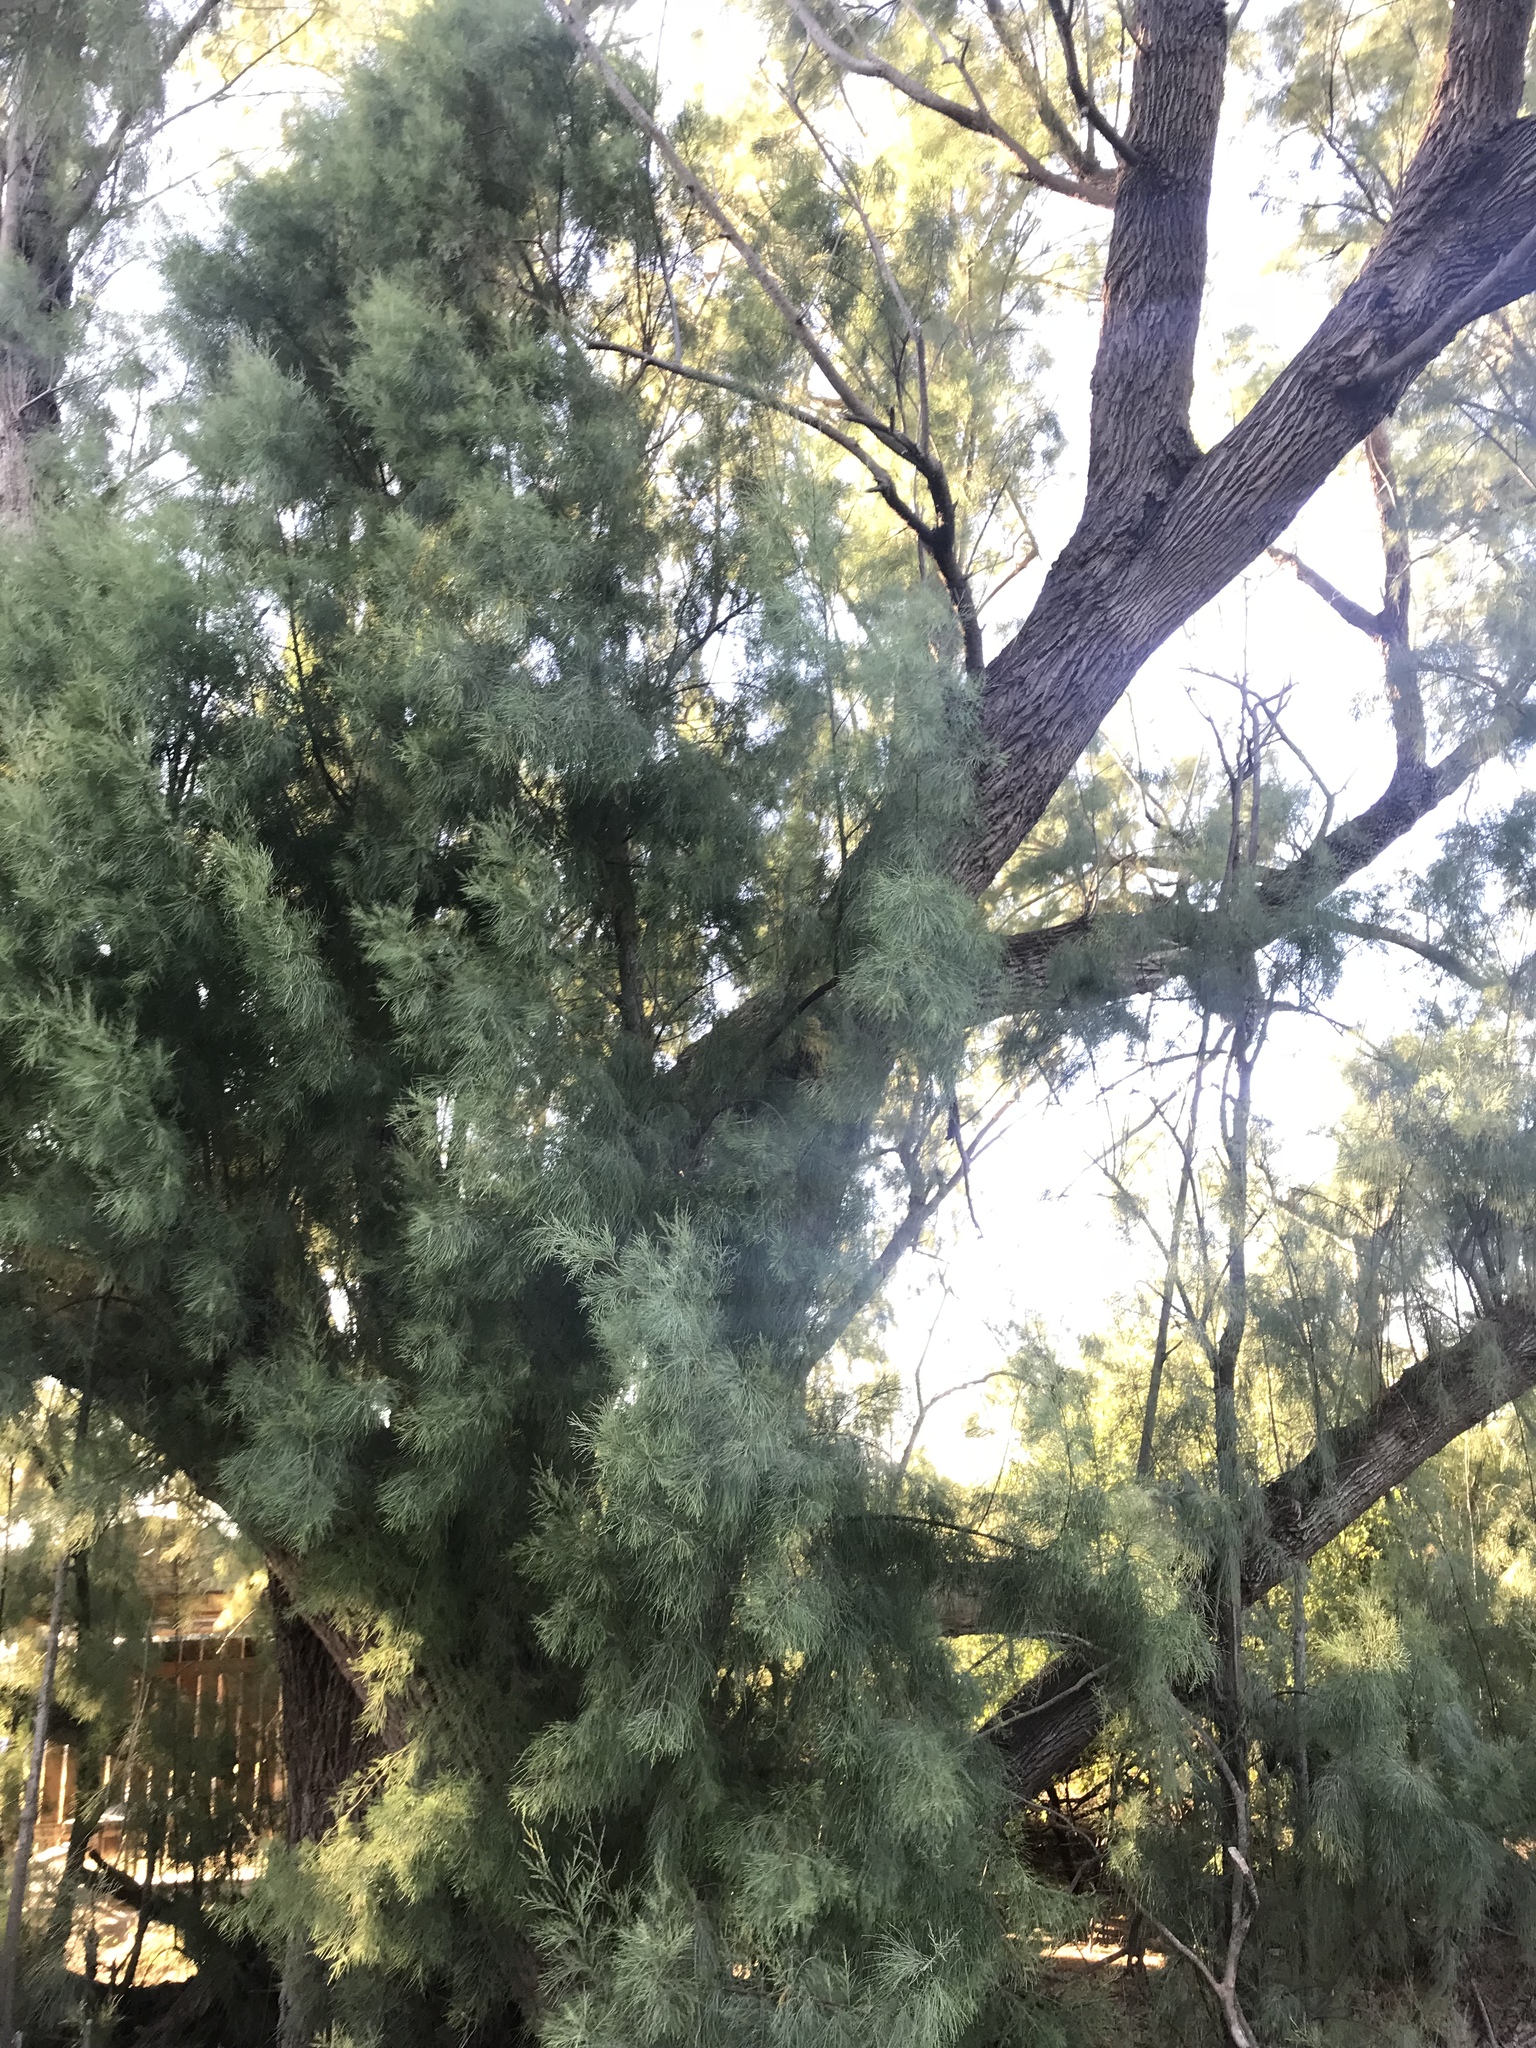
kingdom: Plantae
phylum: Tracheophyta
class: Magnoliopsida
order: Caryophyllales
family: Tamaricaceae
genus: Tamarix
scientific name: Tamarix aphylla
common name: Athel tamarisk
